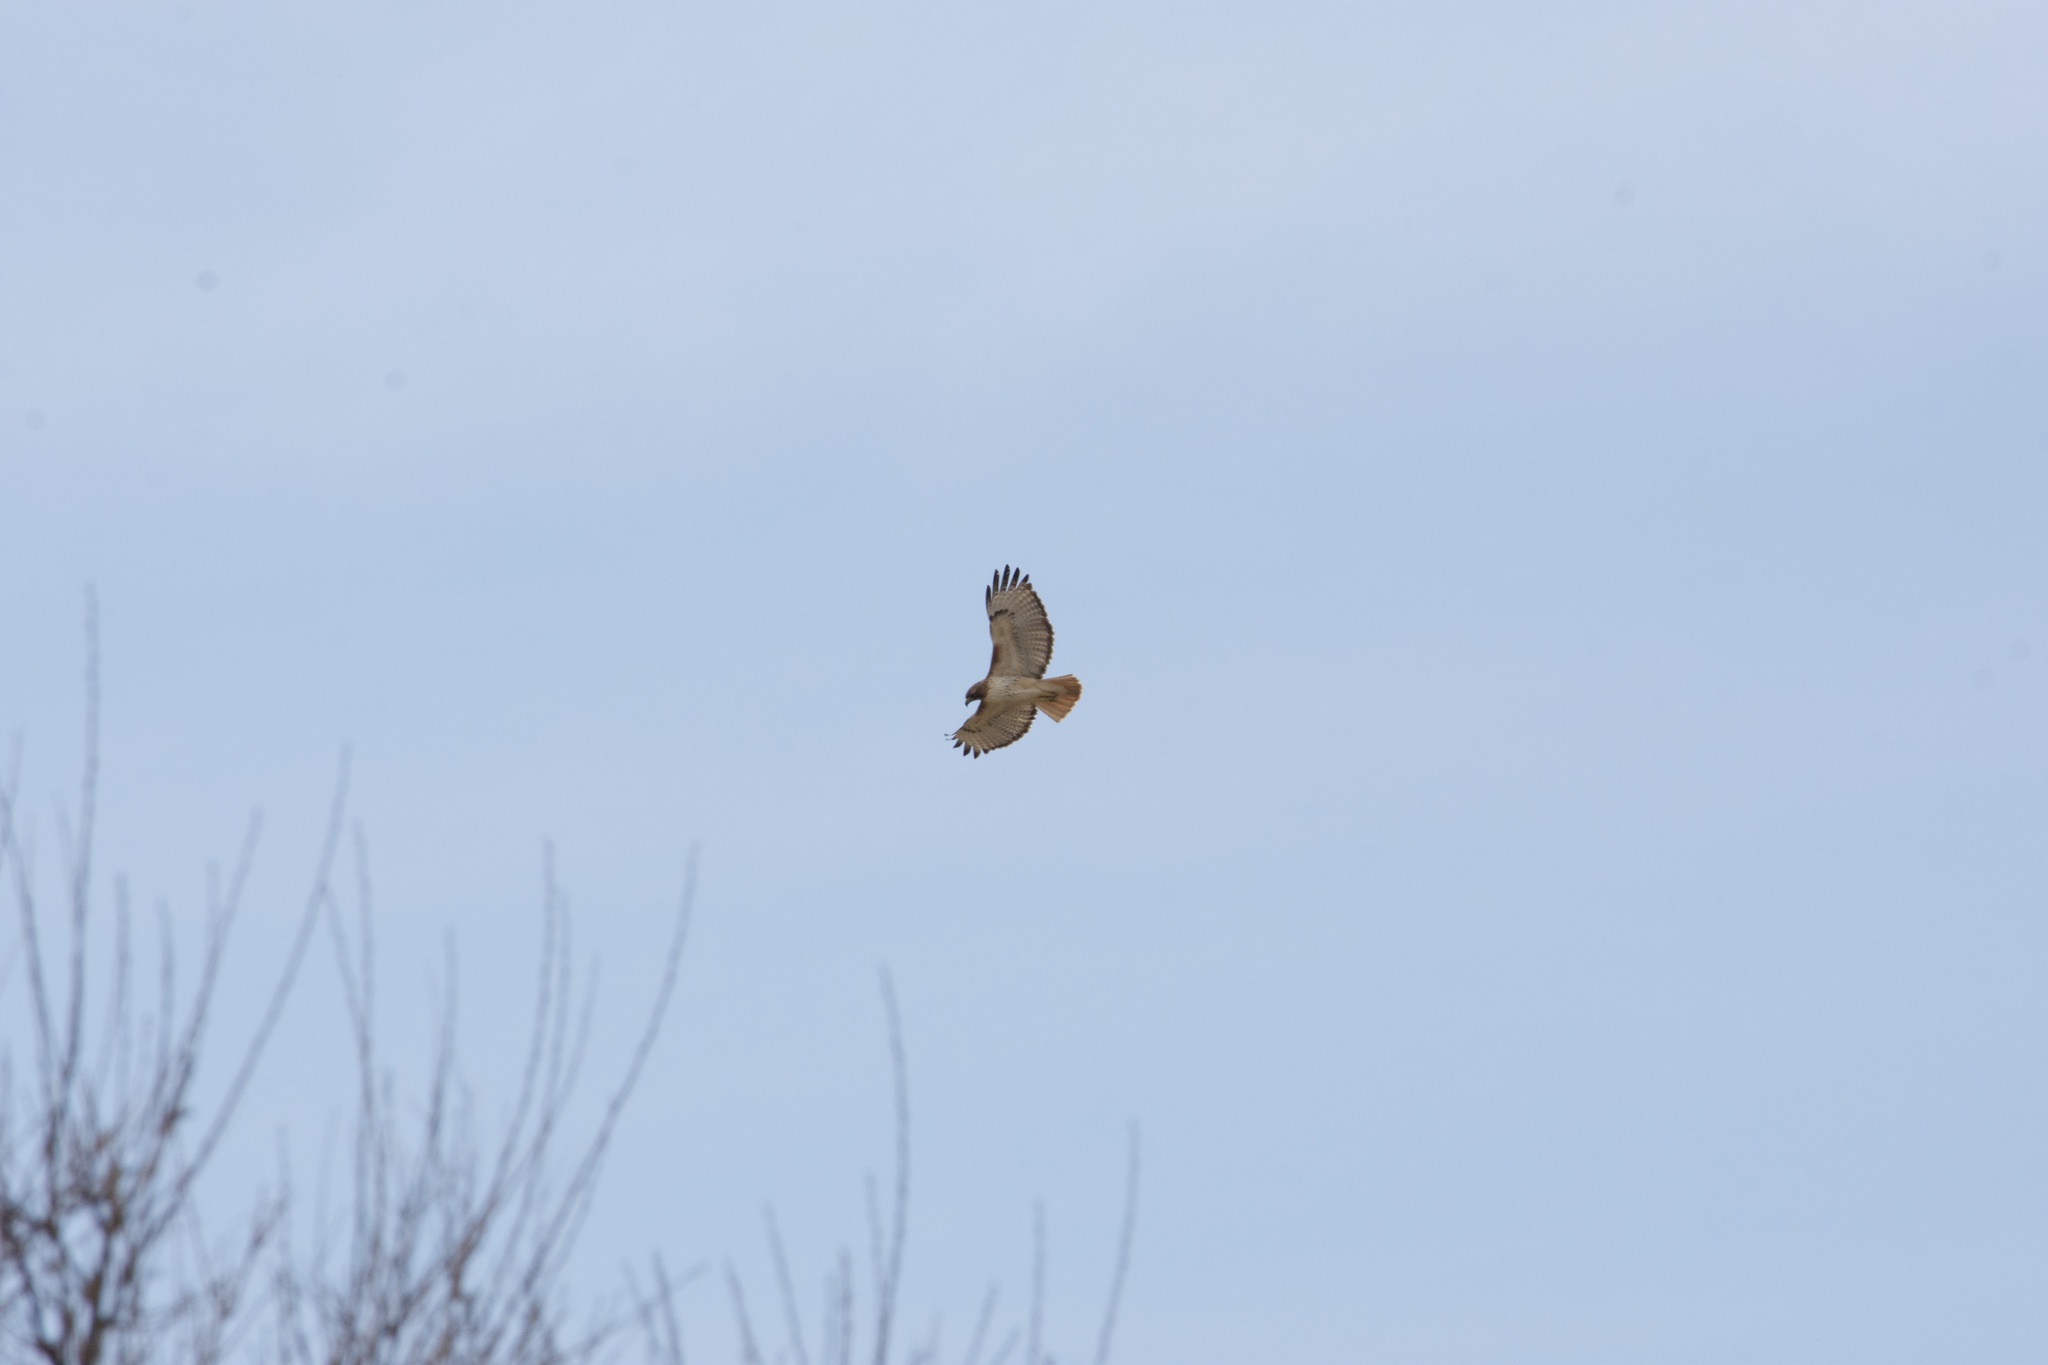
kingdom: Animalia
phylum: Chordata
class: Aves
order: Accipitriformes
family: Accipitridae
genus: Buteo
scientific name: Buteo jamaicensis
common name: Red-tailed hawk
